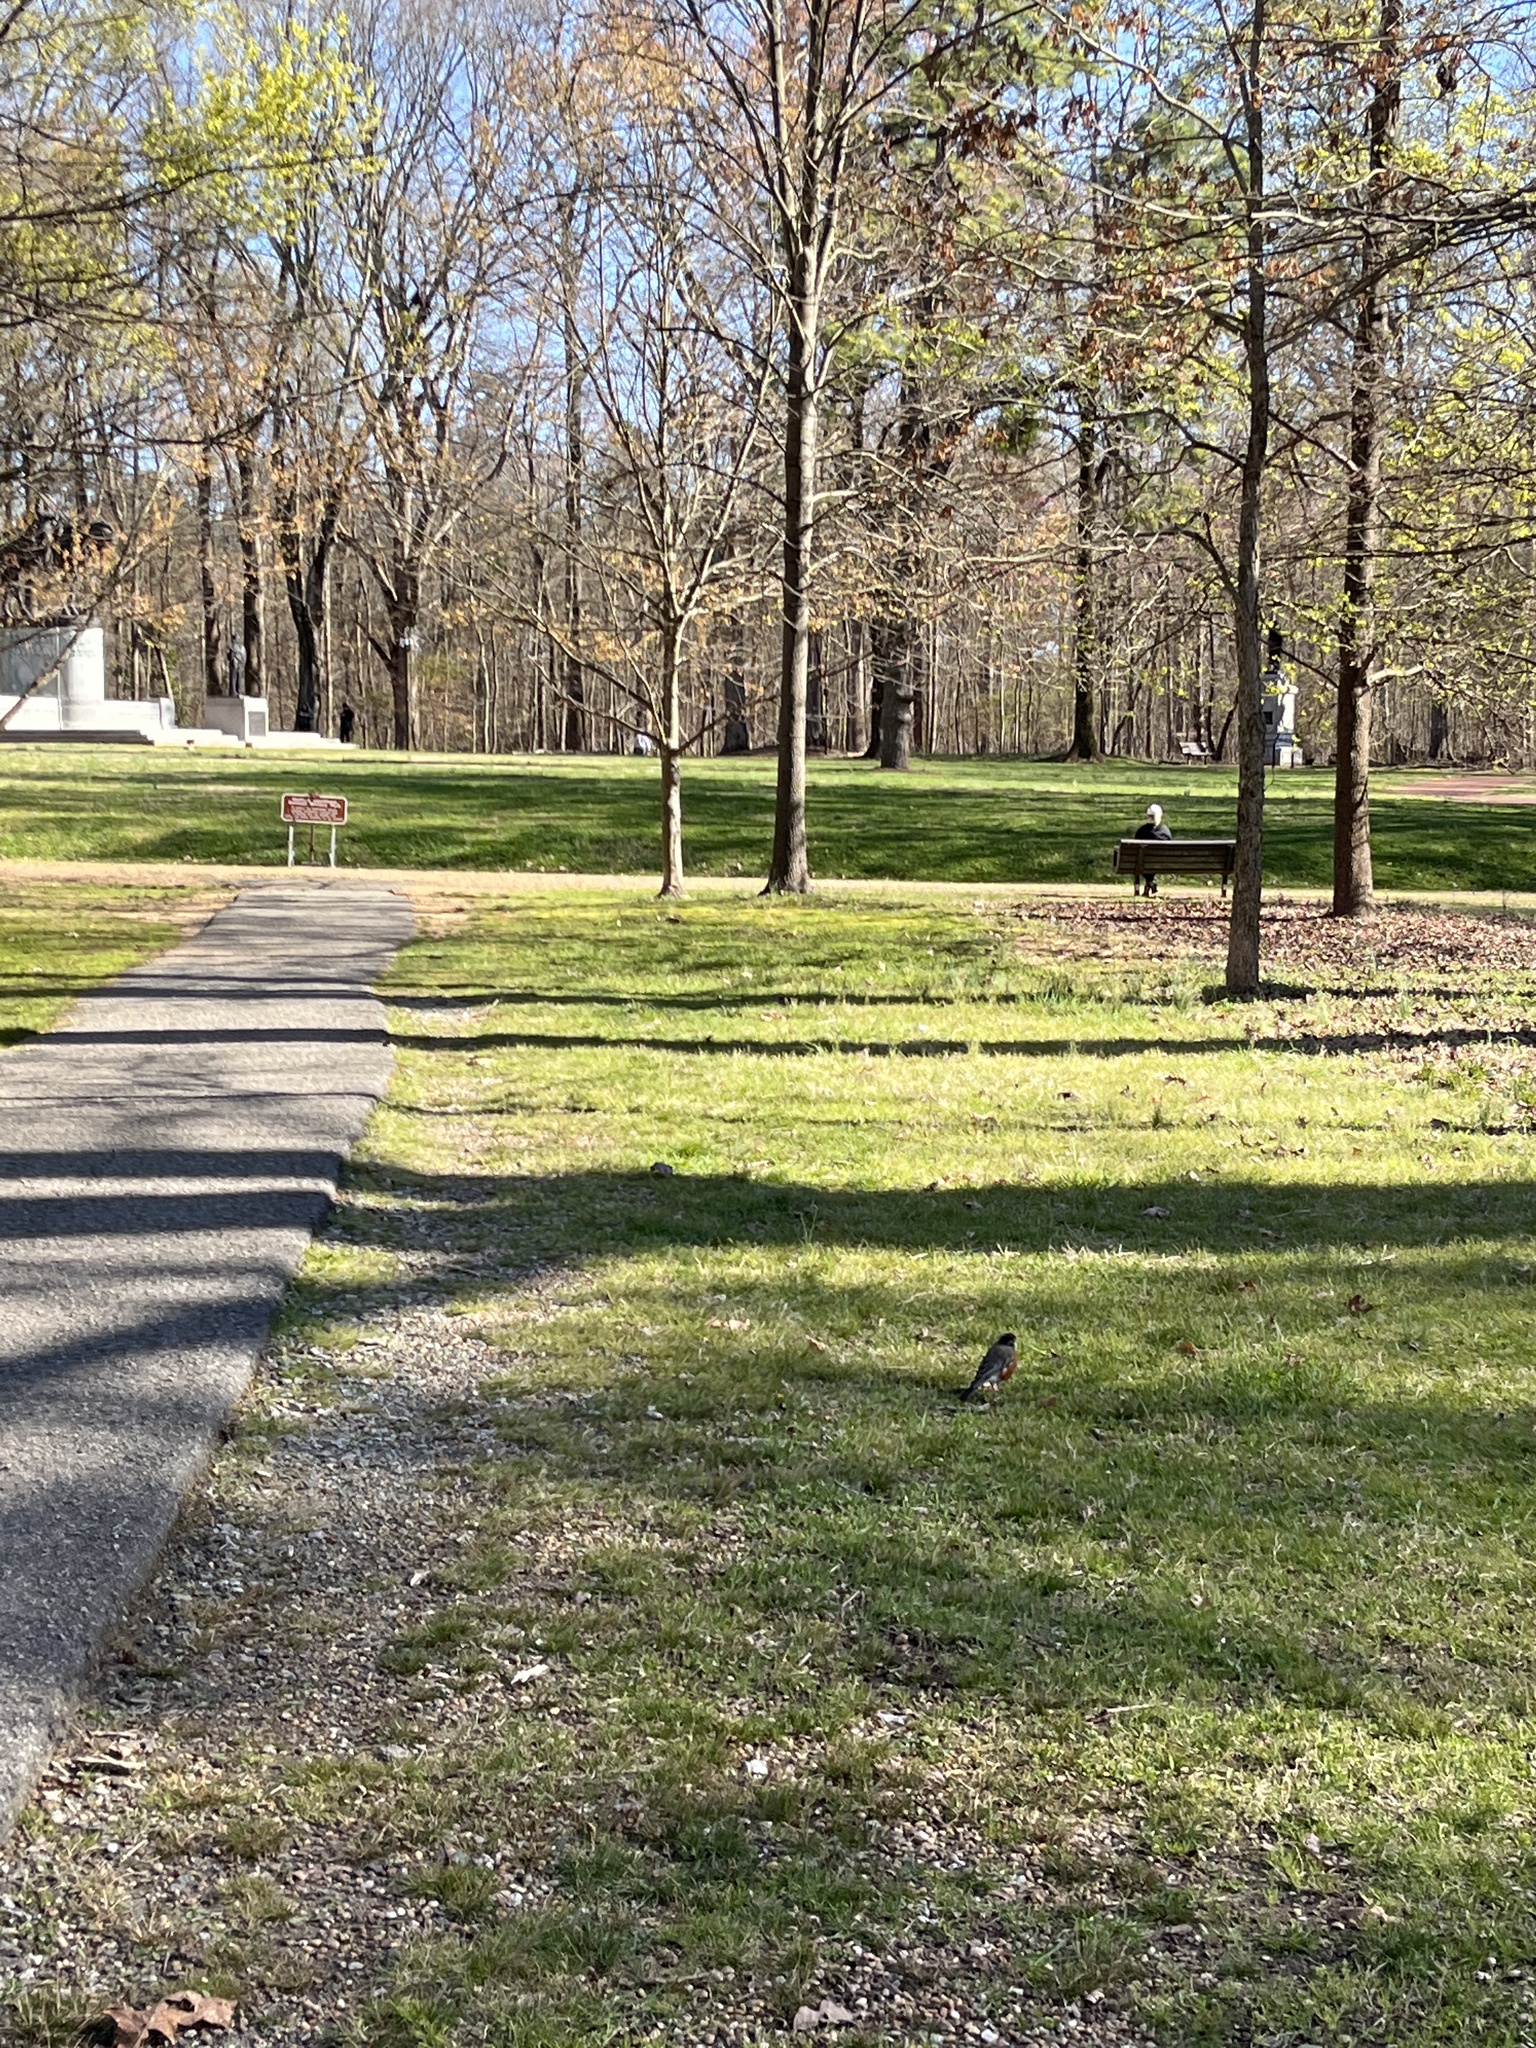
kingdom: Animalia
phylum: Chordata
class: Aves
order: Passeriformes
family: Turdidae
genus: Turdus
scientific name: Turdus migratorius
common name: American robin
